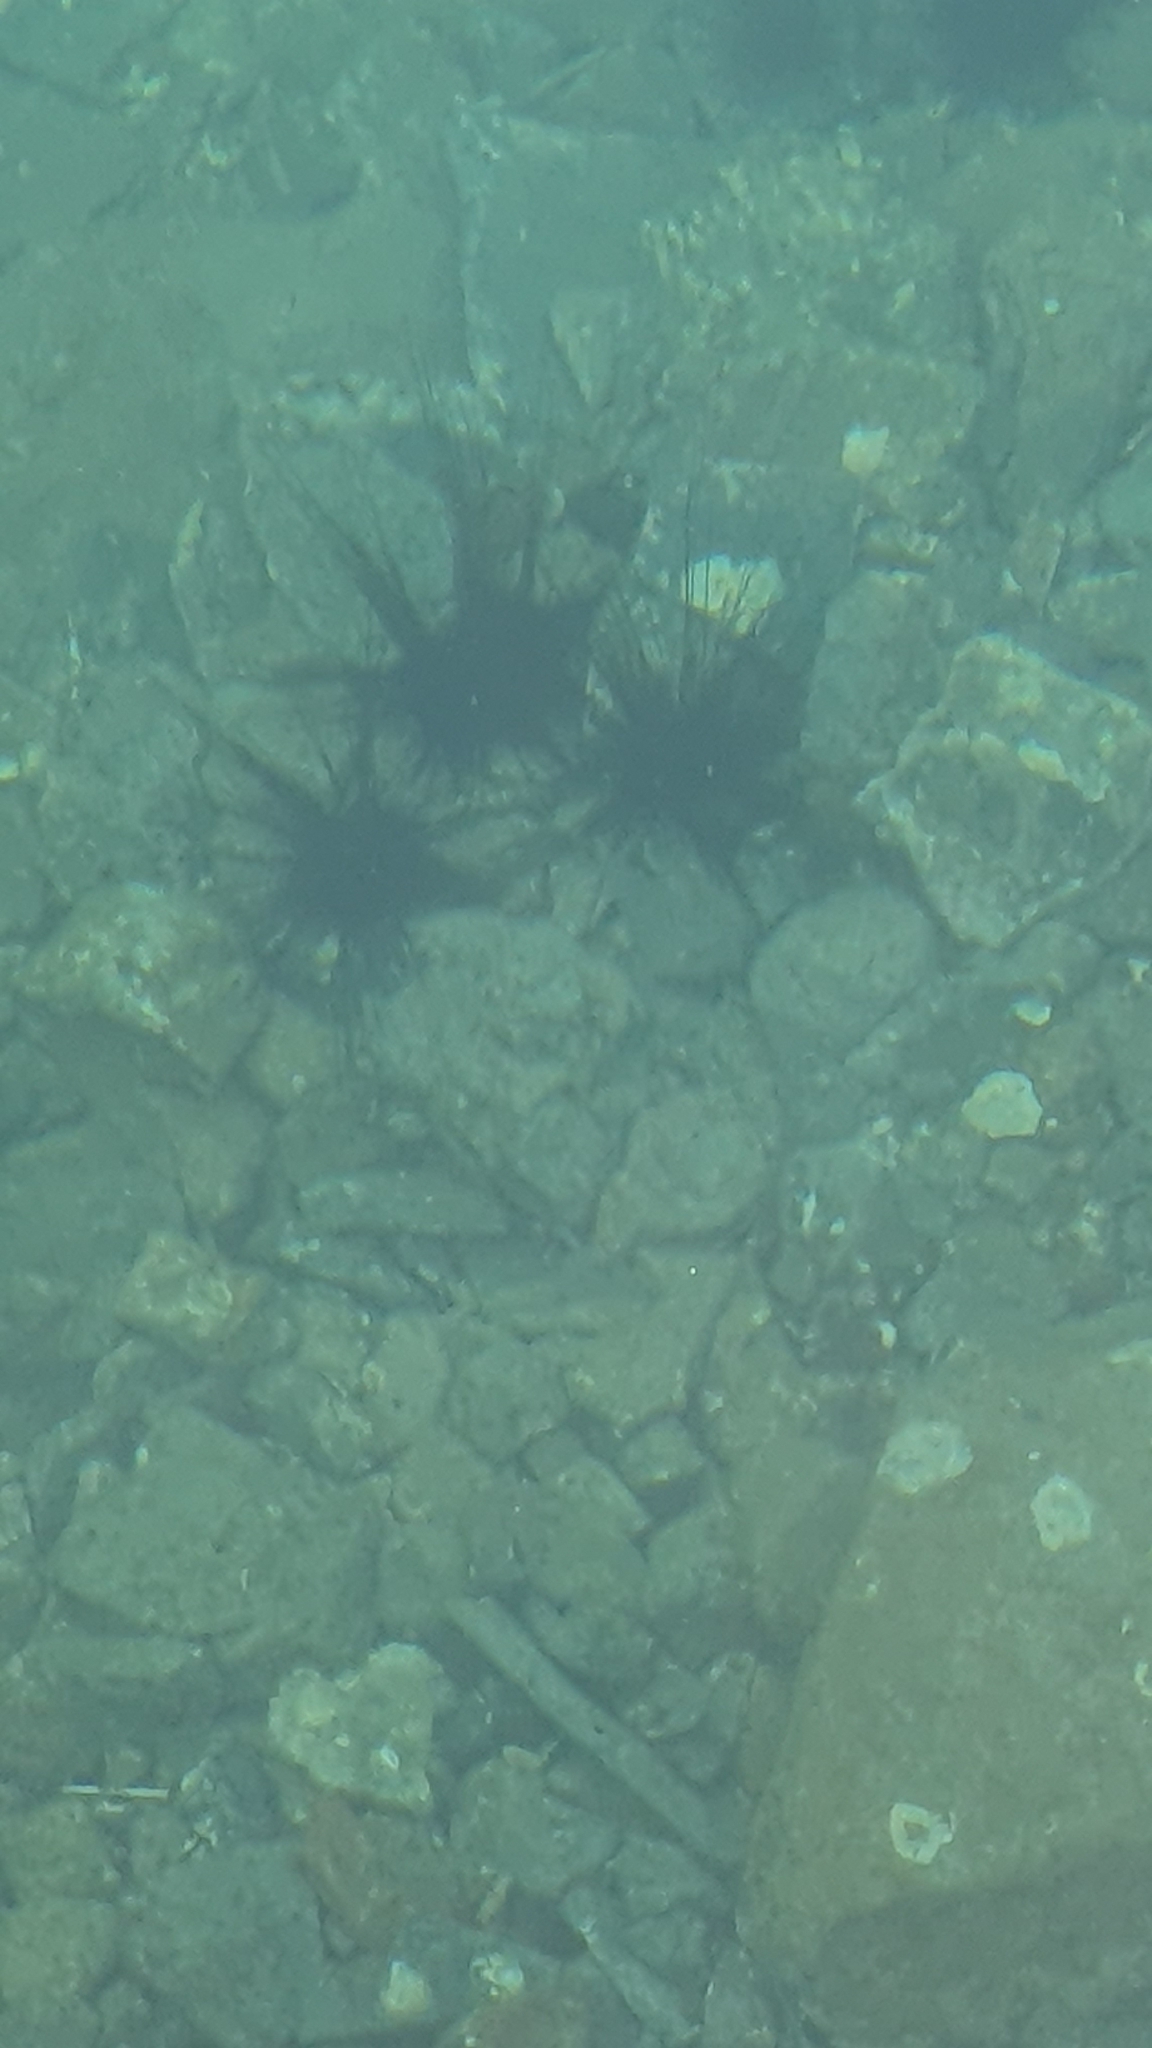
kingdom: Animalia
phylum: Echinodermata
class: Echinoidea
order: Diadematoida
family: Diadematidae
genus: Diadema
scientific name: Diadema setosum
